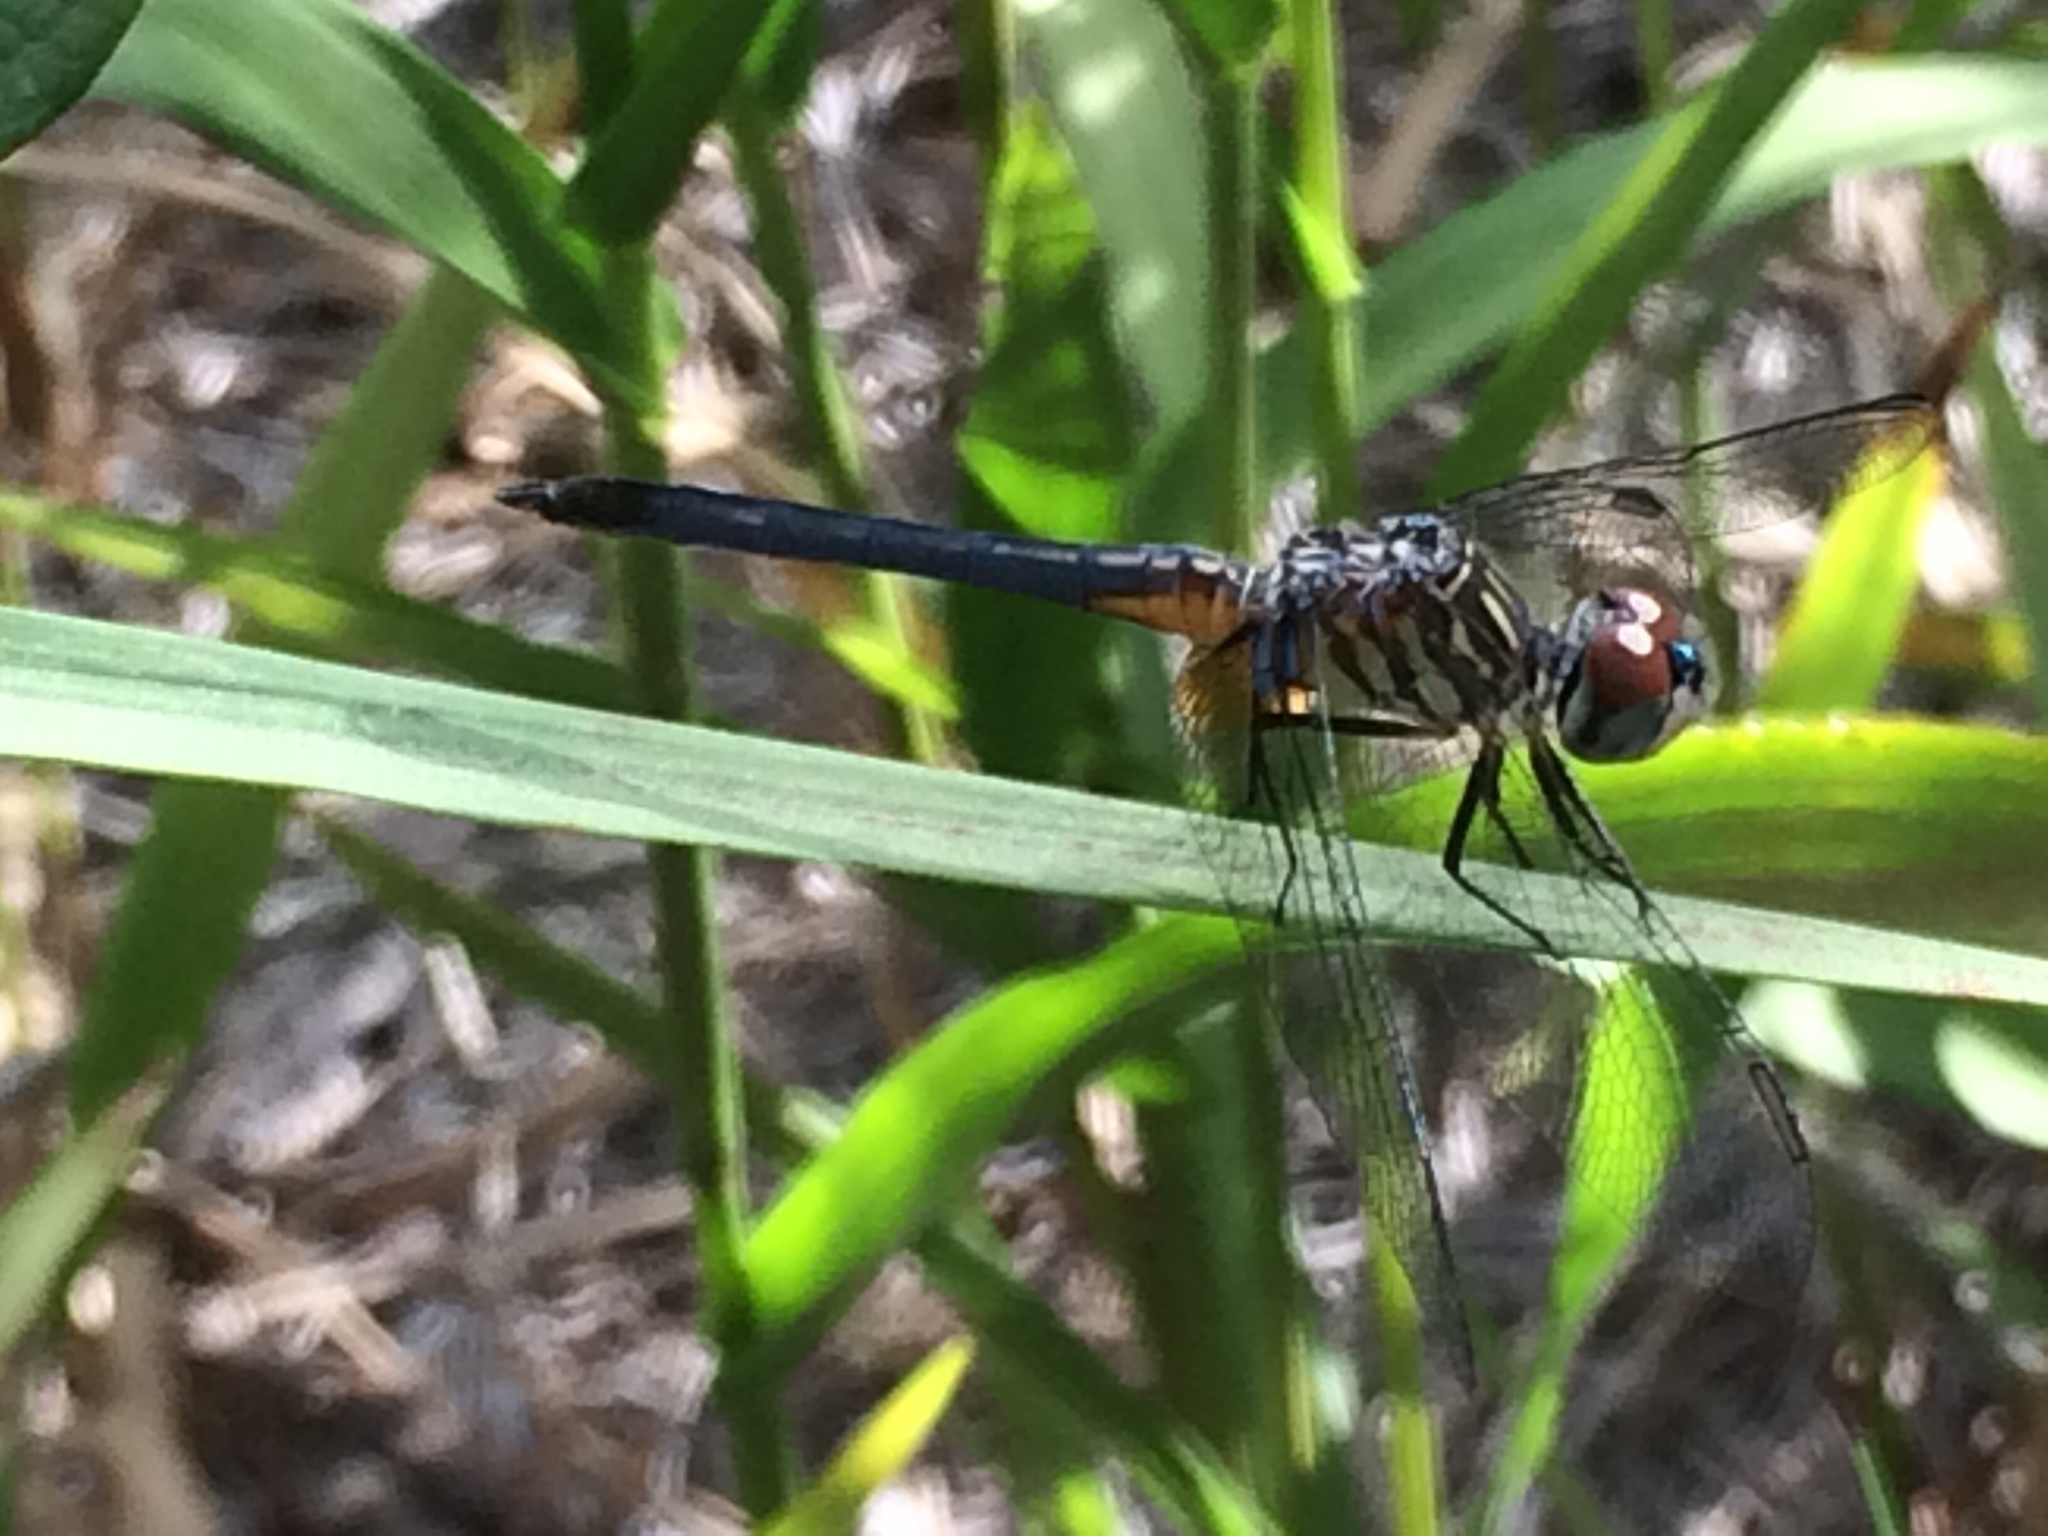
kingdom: Animalia
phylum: Arthropoda
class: Insecta
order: Odonata
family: Libellulidae
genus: Pachydiplax
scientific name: Pachydiplax longipennis
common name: Blue dasher
